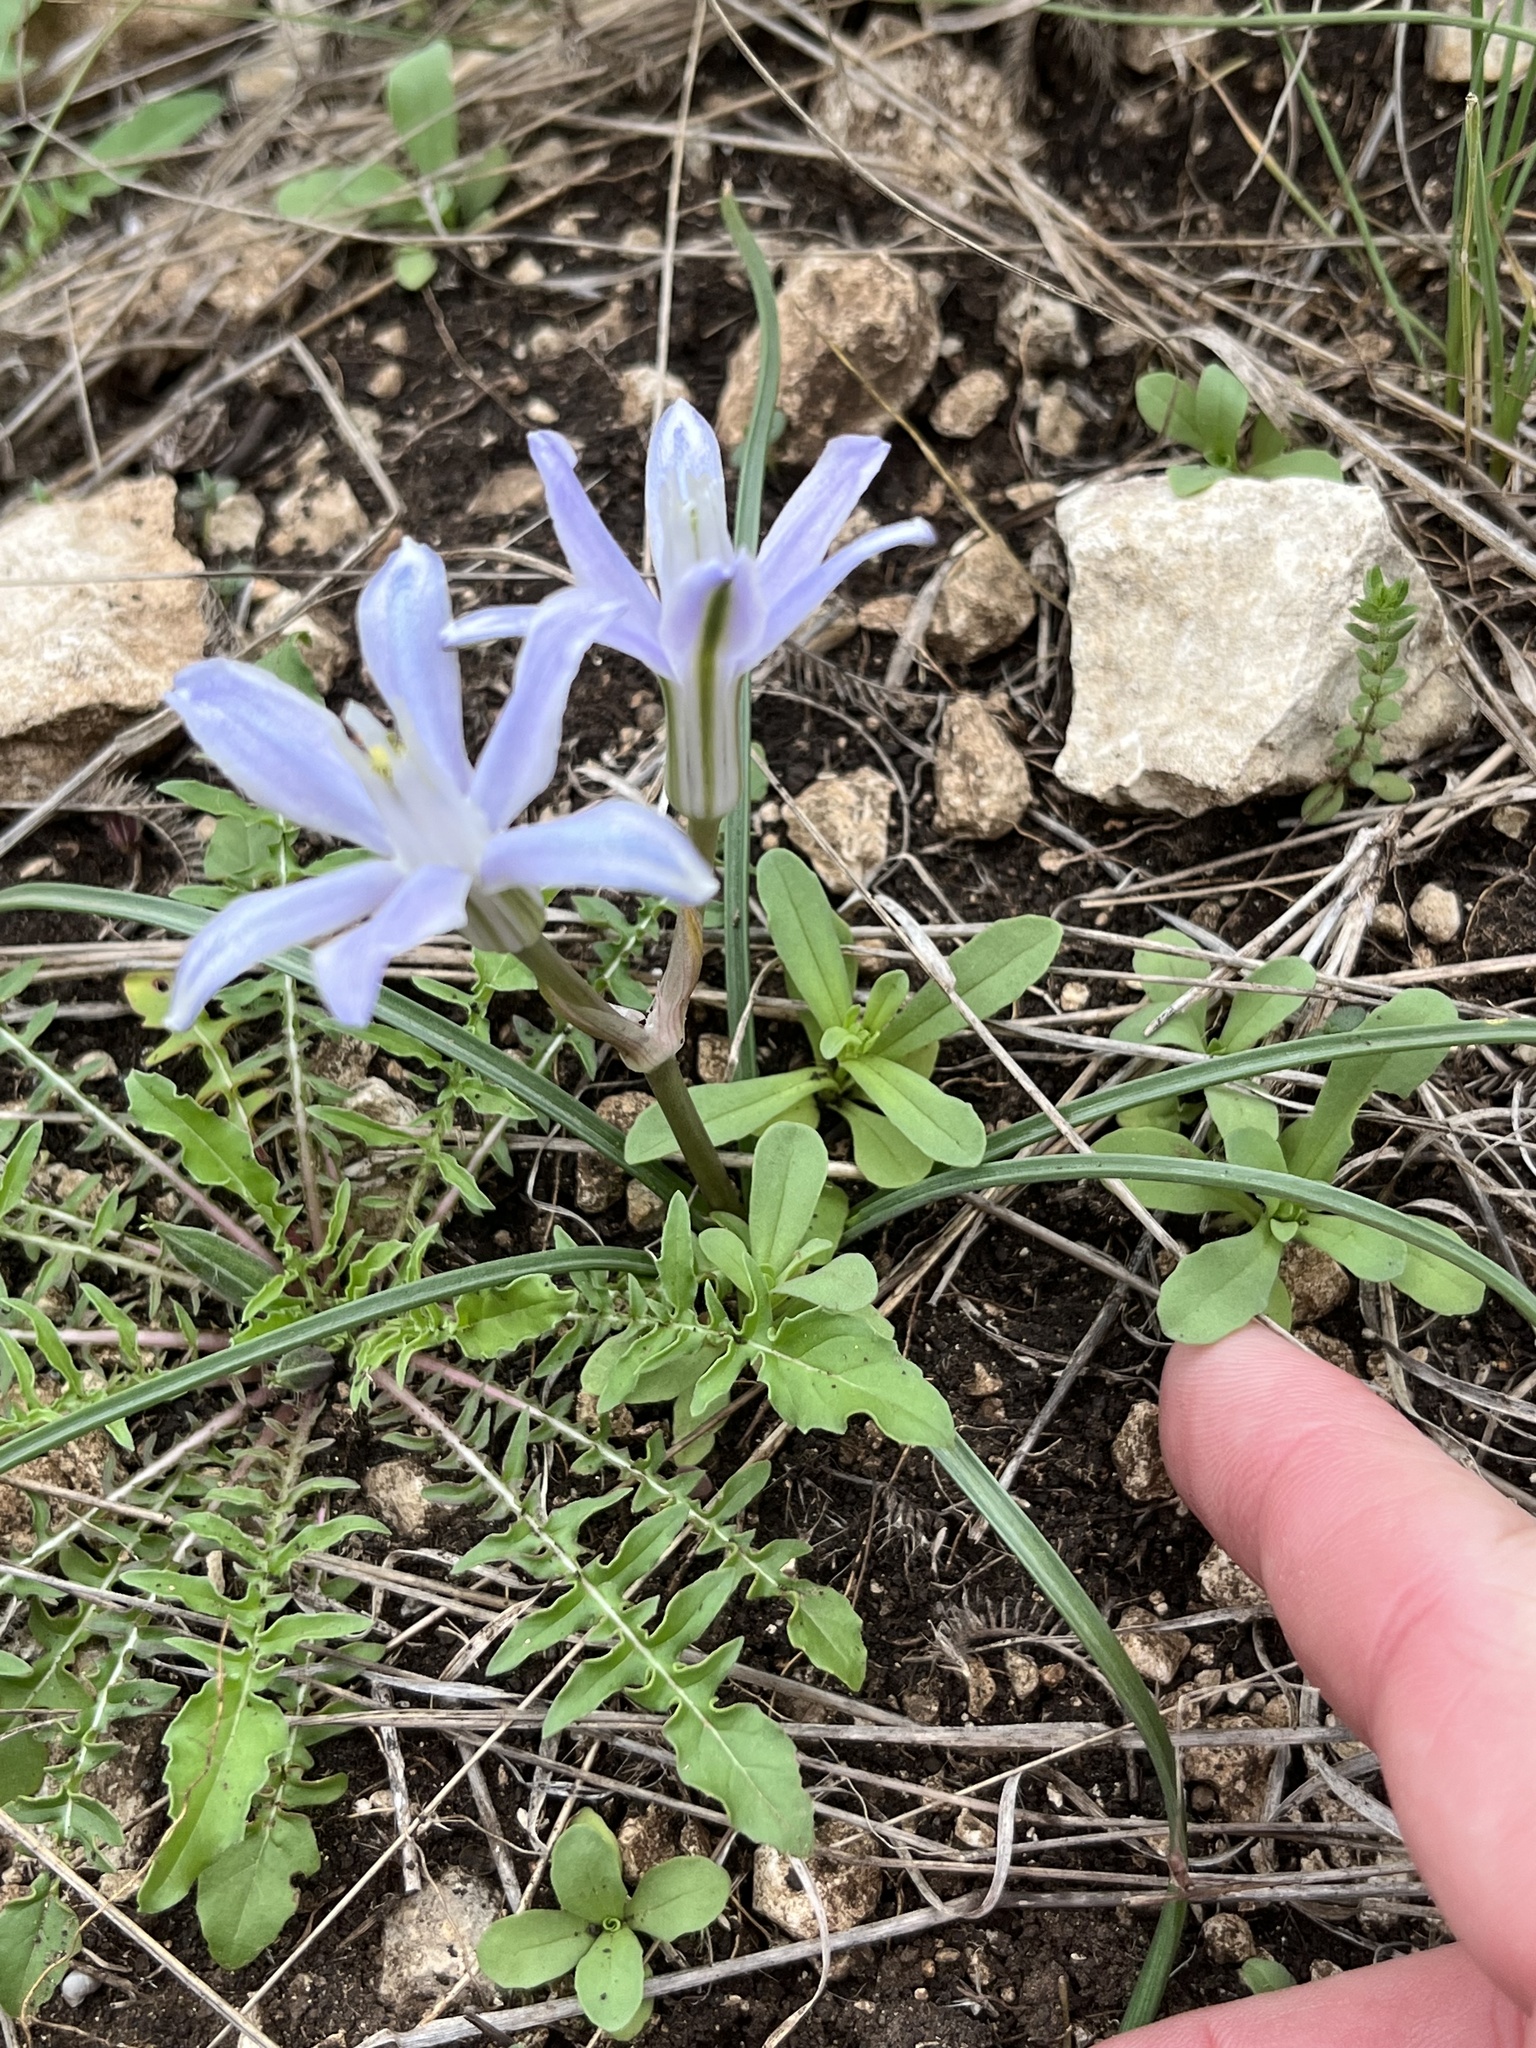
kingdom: Plantae
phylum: Tracheophyta
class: Liliopsida
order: Asparagales
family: Asparagaceae
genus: Androstephium
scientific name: Androstephium coeruleum
